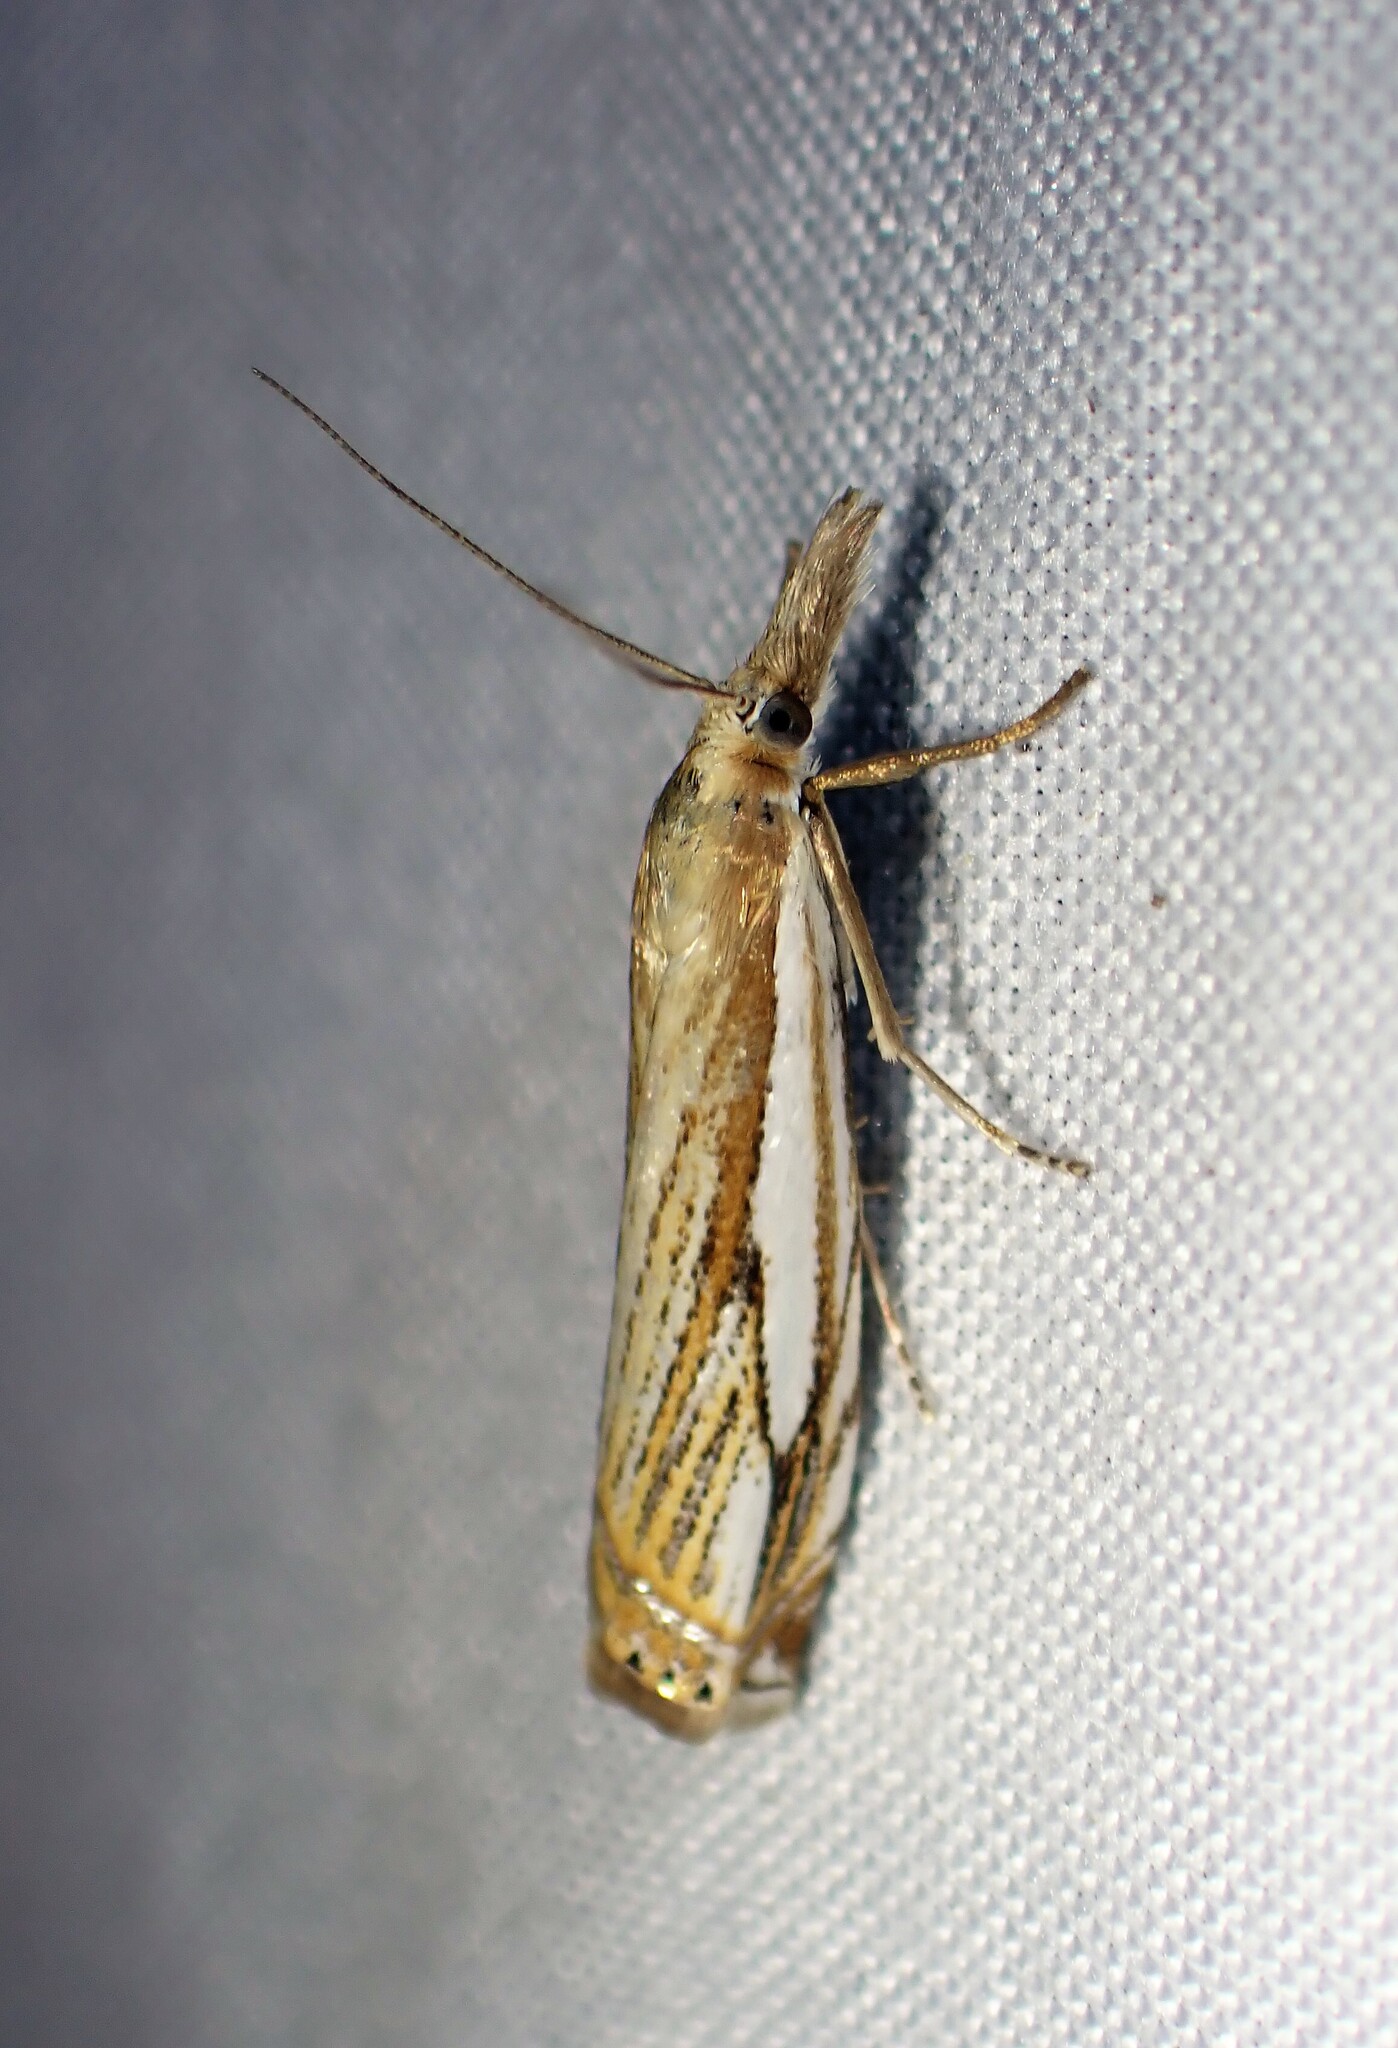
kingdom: Animalia
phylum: Arthropoda
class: Insecta
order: Lepidoptera
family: Crambidae
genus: Crambus
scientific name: Crambus saltuellus
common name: Pasture grass-veneer
